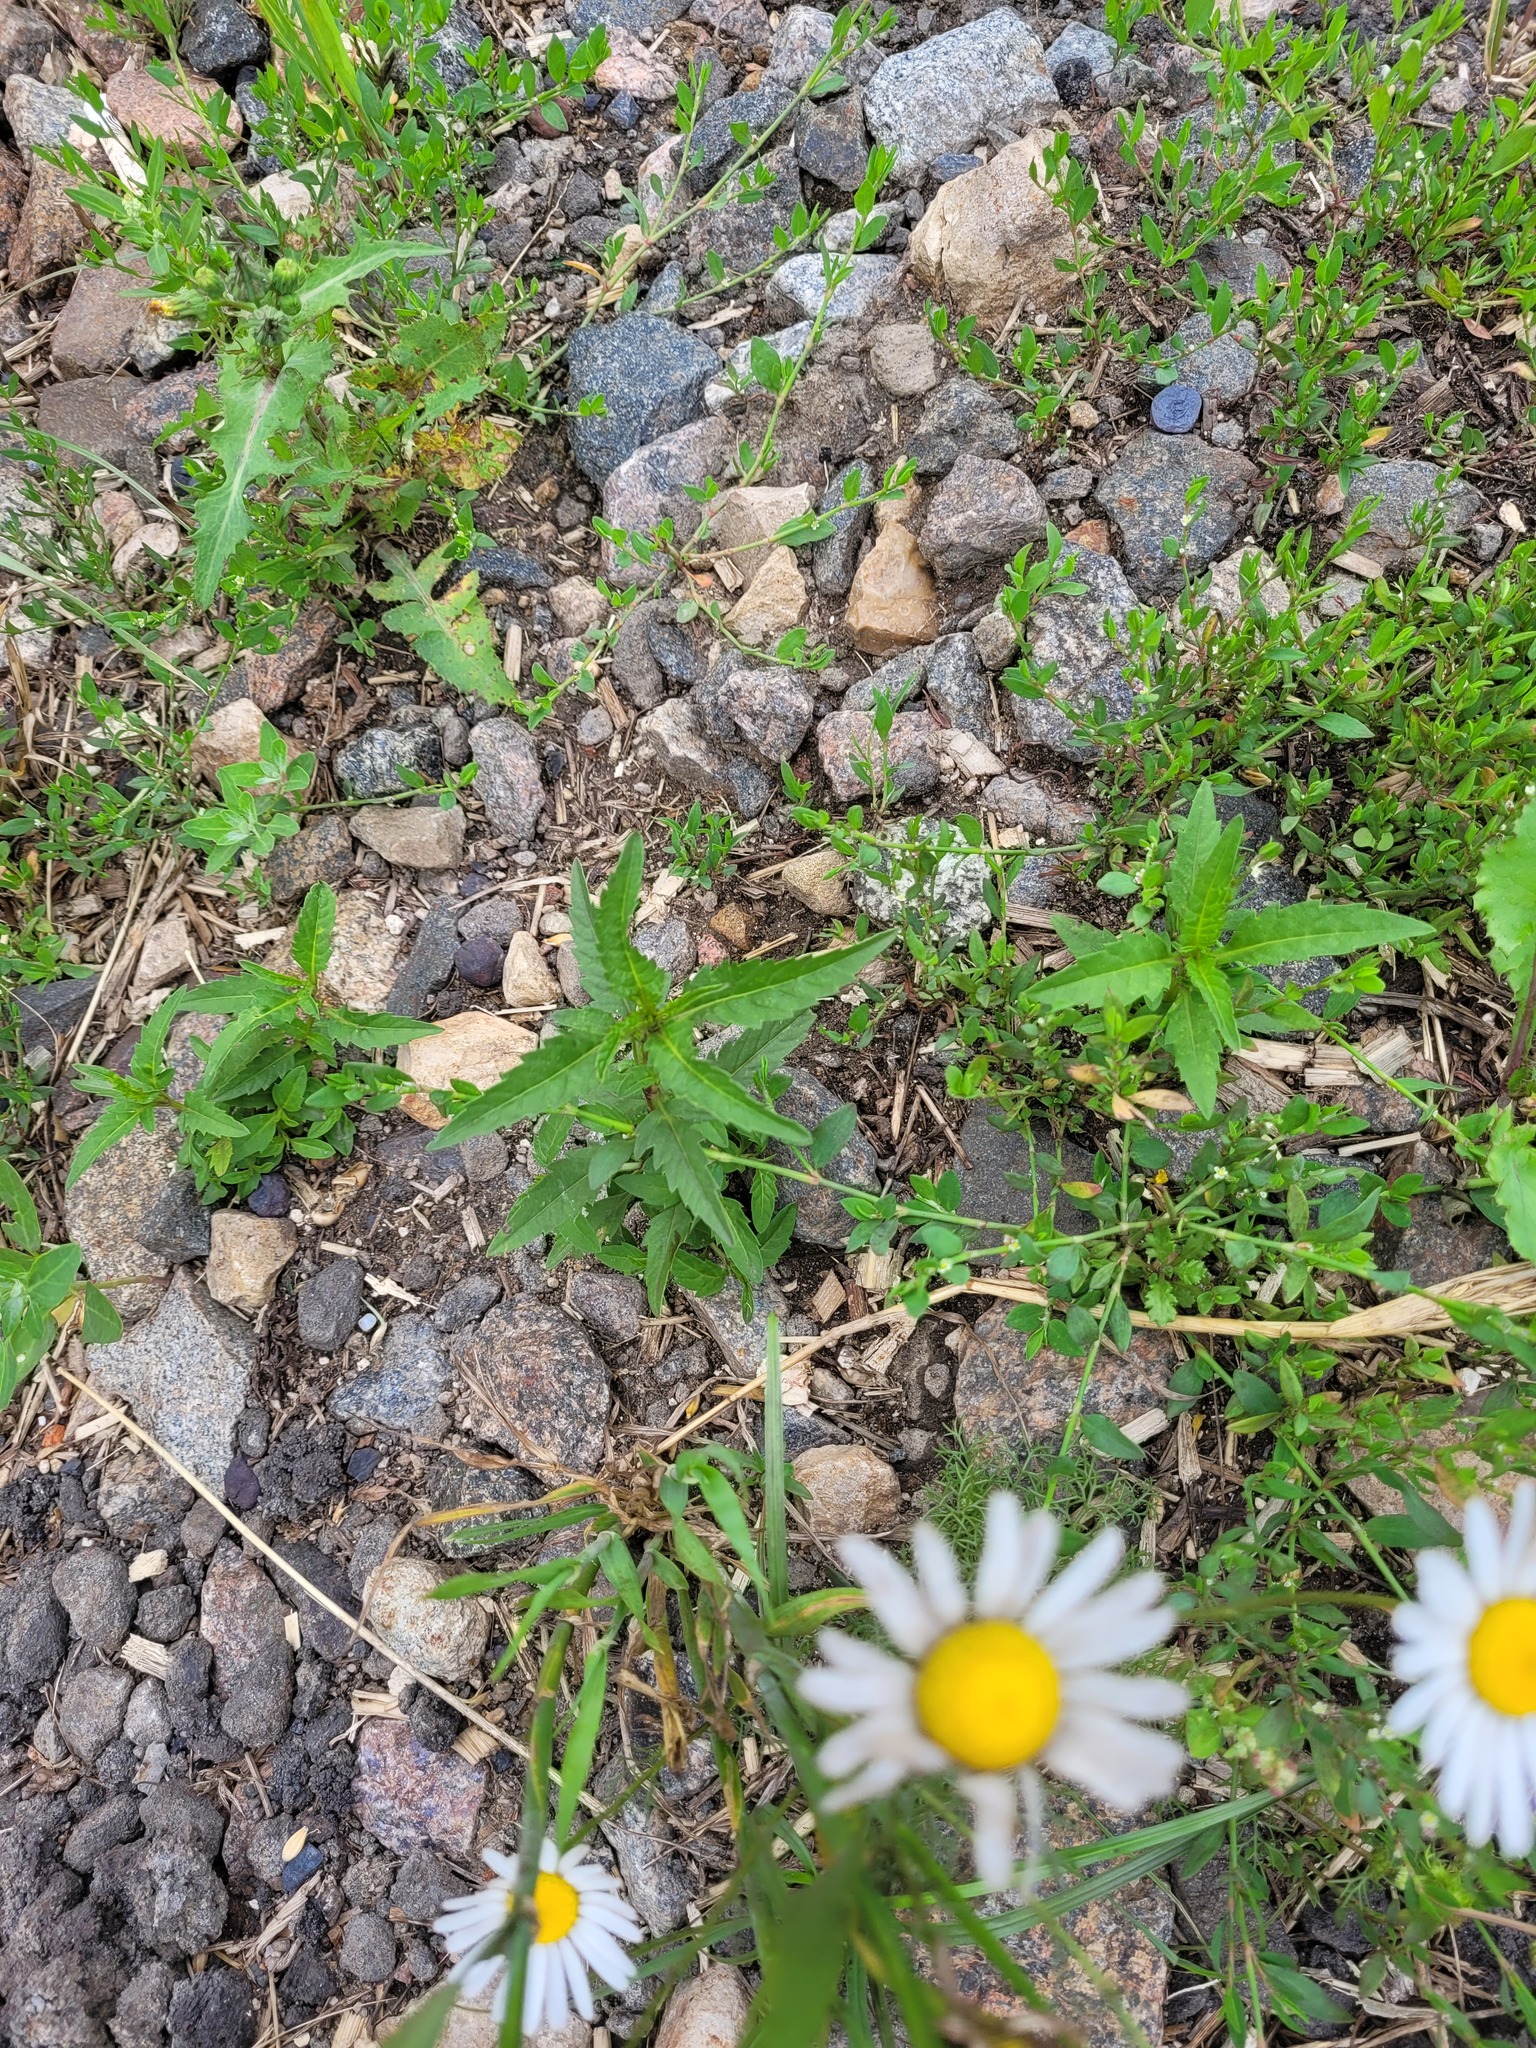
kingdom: Plantae
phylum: Tracheophyta
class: Magnoliopsida
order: Asterales
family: Asteraceae
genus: Bidens
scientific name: Bidens tripartita
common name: Trifid bur-marigold
